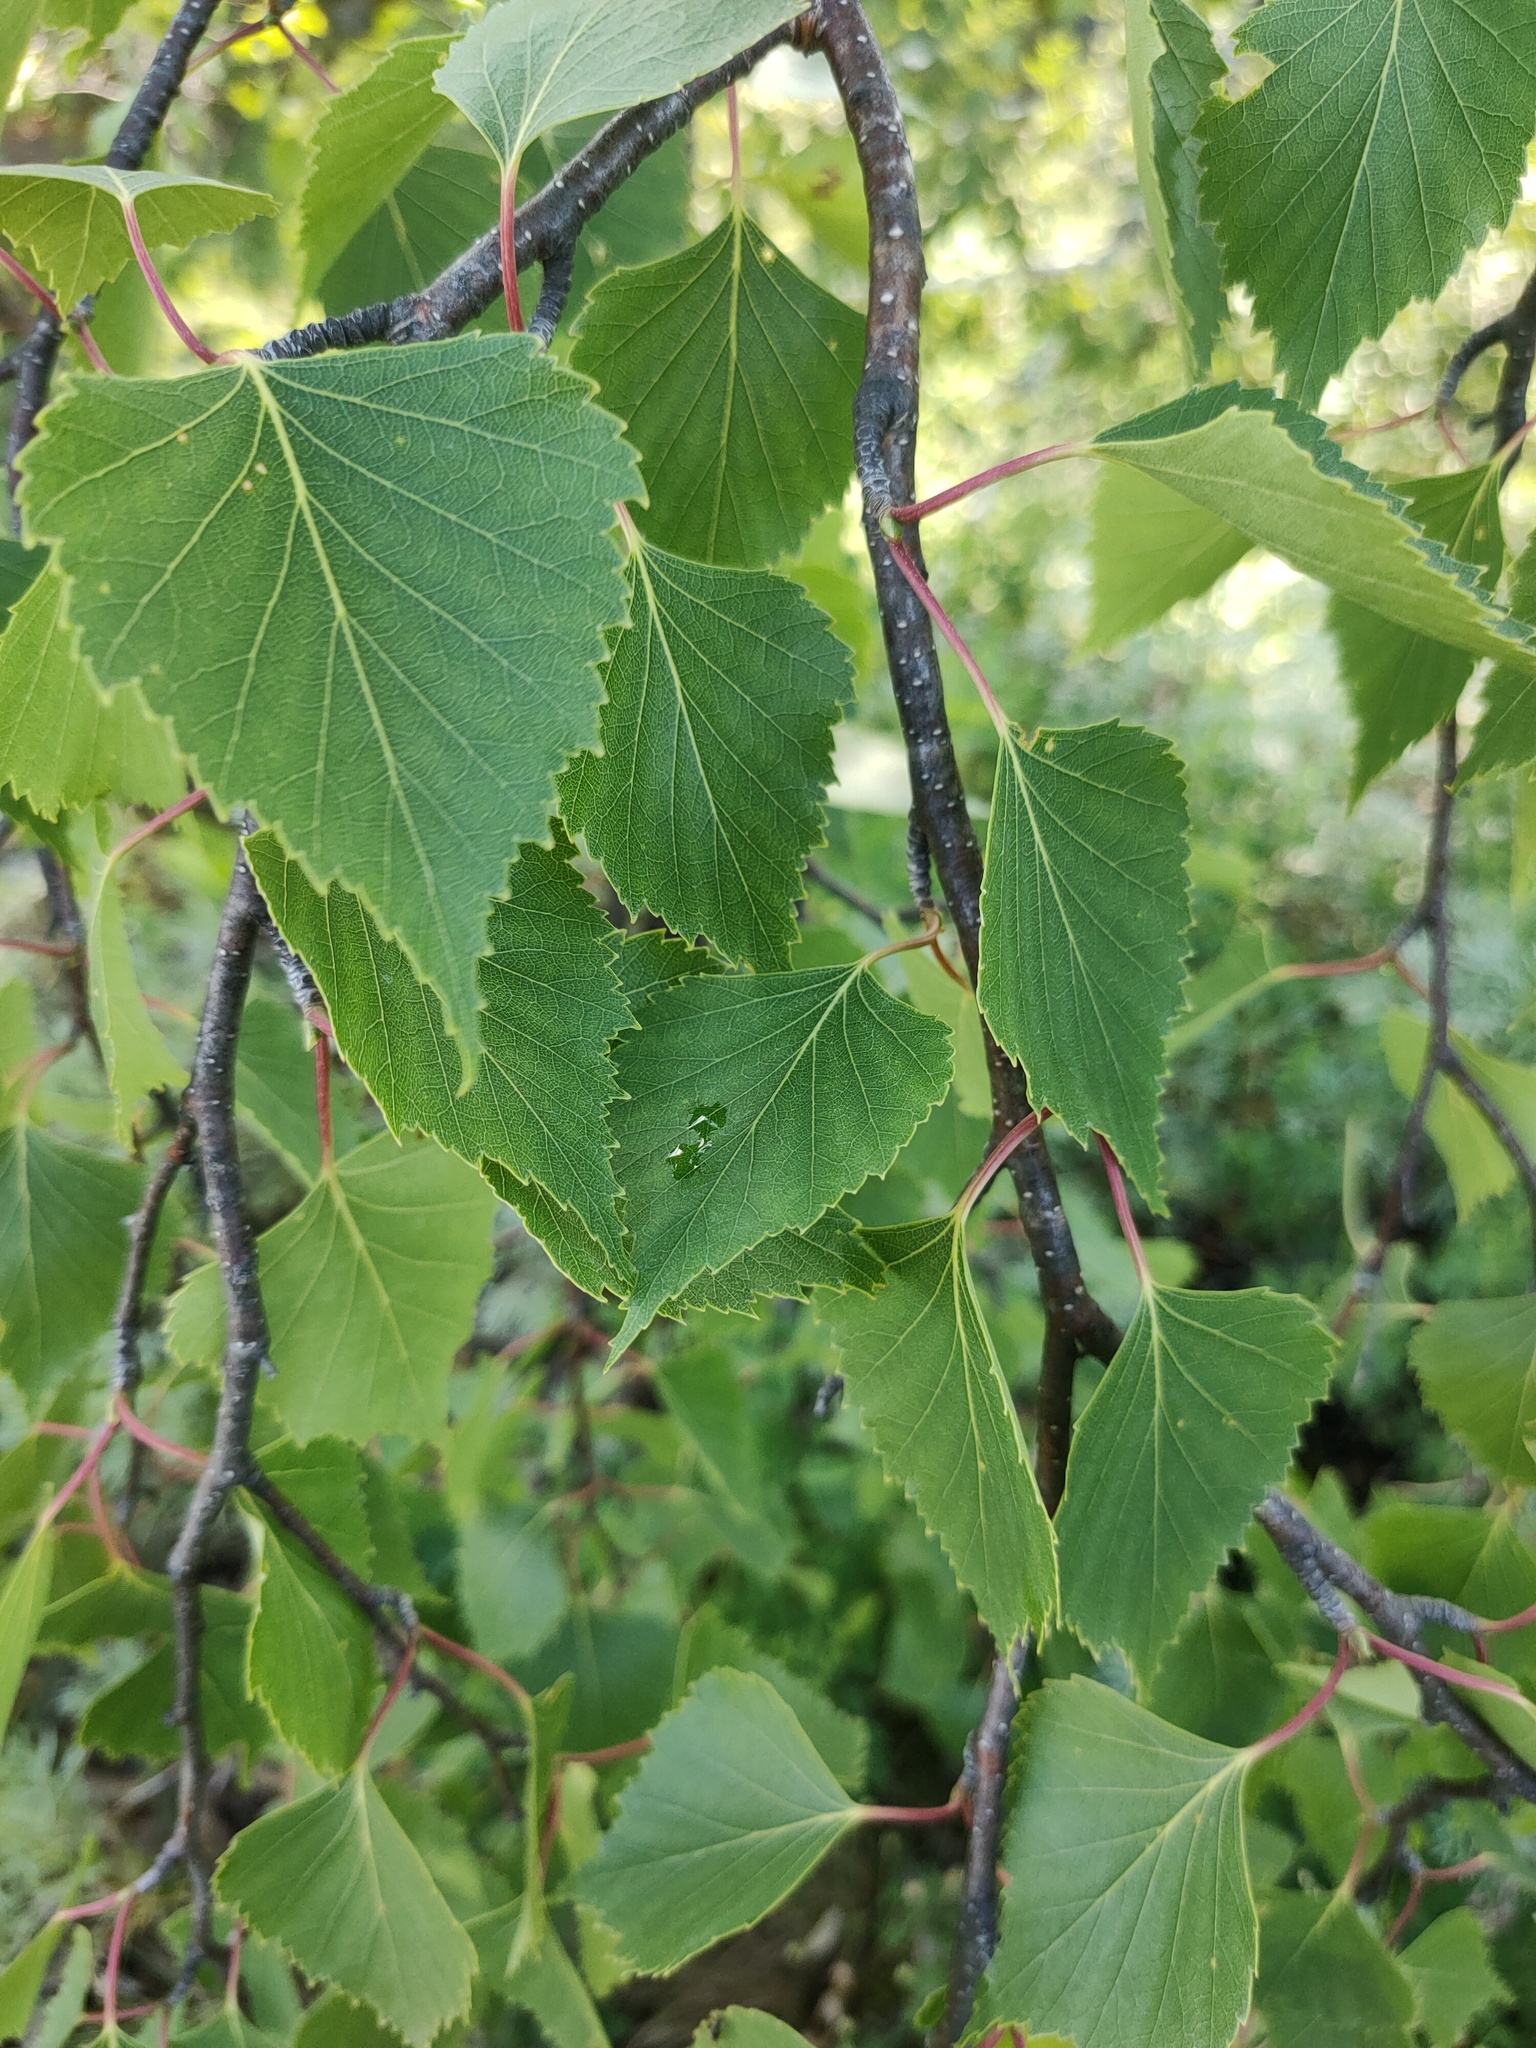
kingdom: Plantae
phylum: Tracheophyta
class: Magnoliopsida
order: Fagales
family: Betulaceae
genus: Betula
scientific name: Betula pendula
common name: Silver birch
